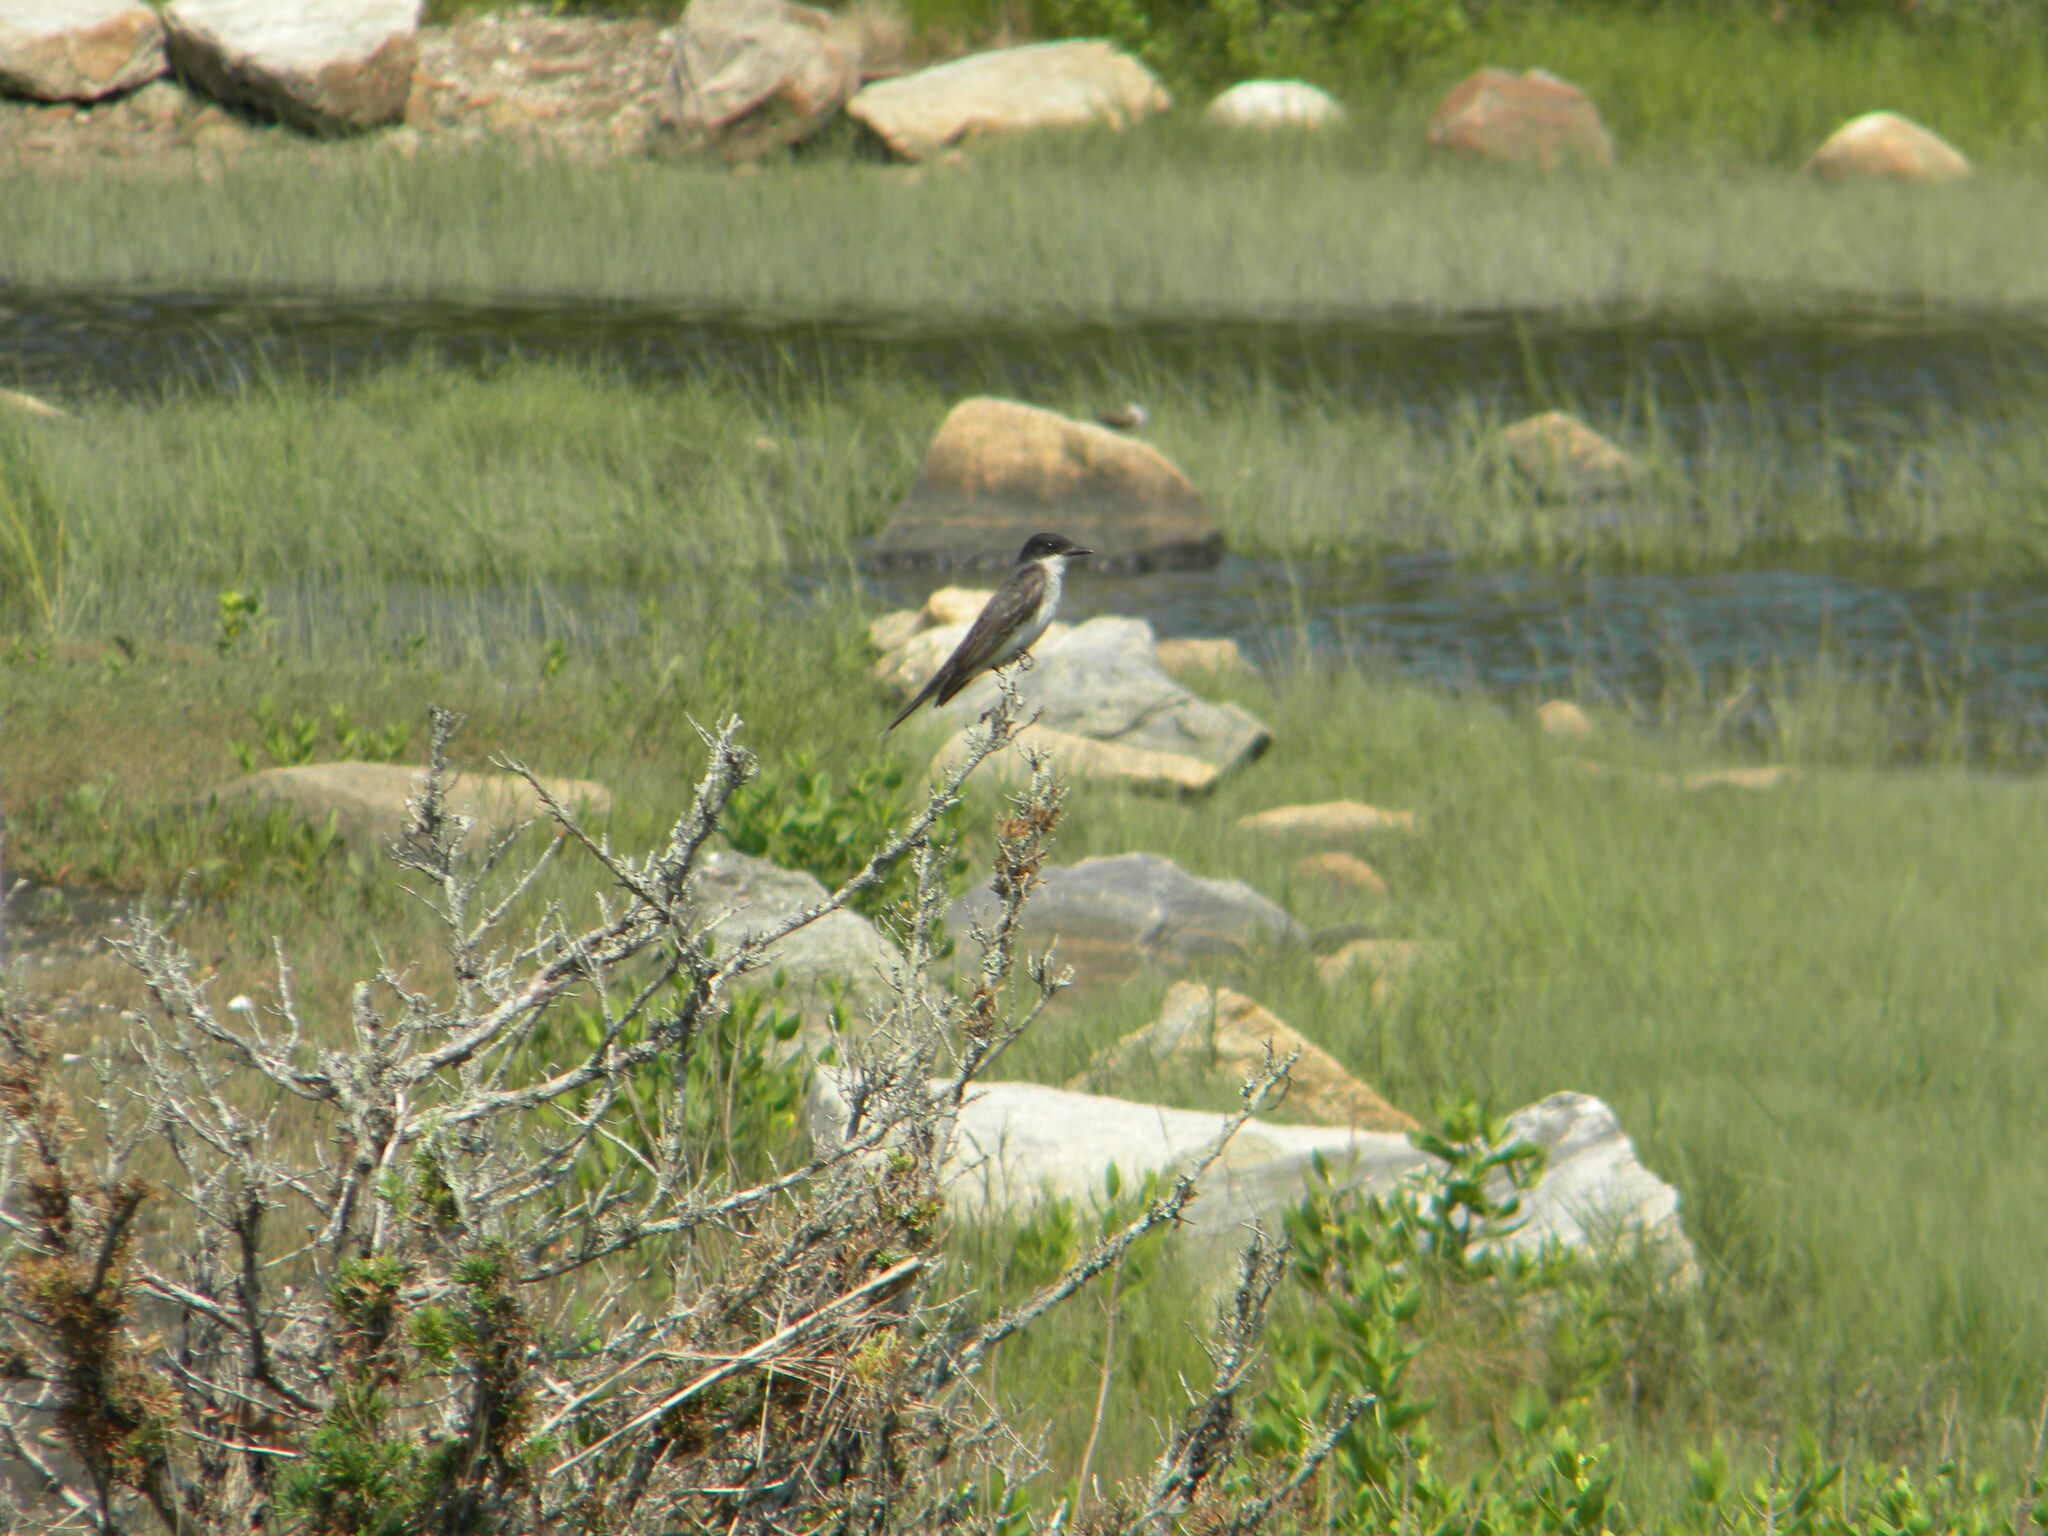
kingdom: Animalia
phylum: Chordata
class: Aves
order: Passeriformes
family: Tyrannidae
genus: Tyrannus
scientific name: Tyrannus tyrannus
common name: Eastern kingbird
